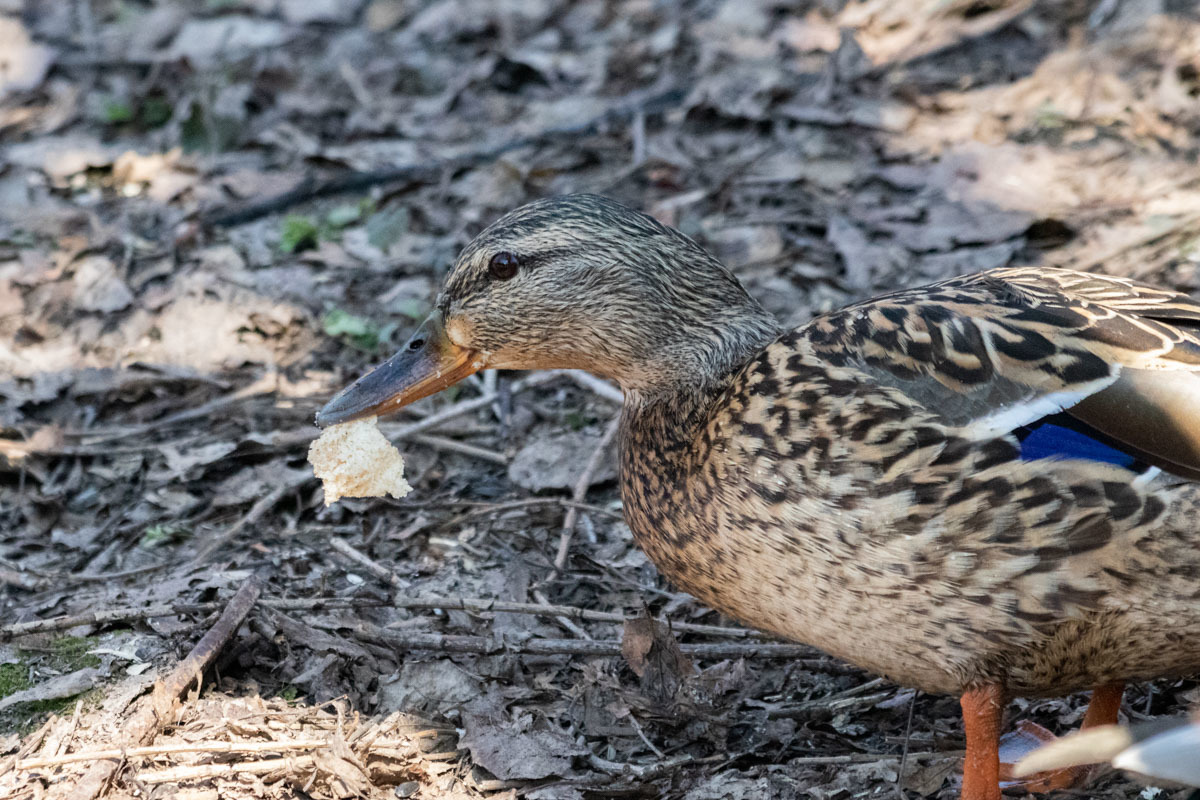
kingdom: Animalia
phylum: Chordata
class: Aves
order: Anseriformes
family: Anatidae
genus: Anas
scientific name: Anas platyrhynchos
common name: Mallard
